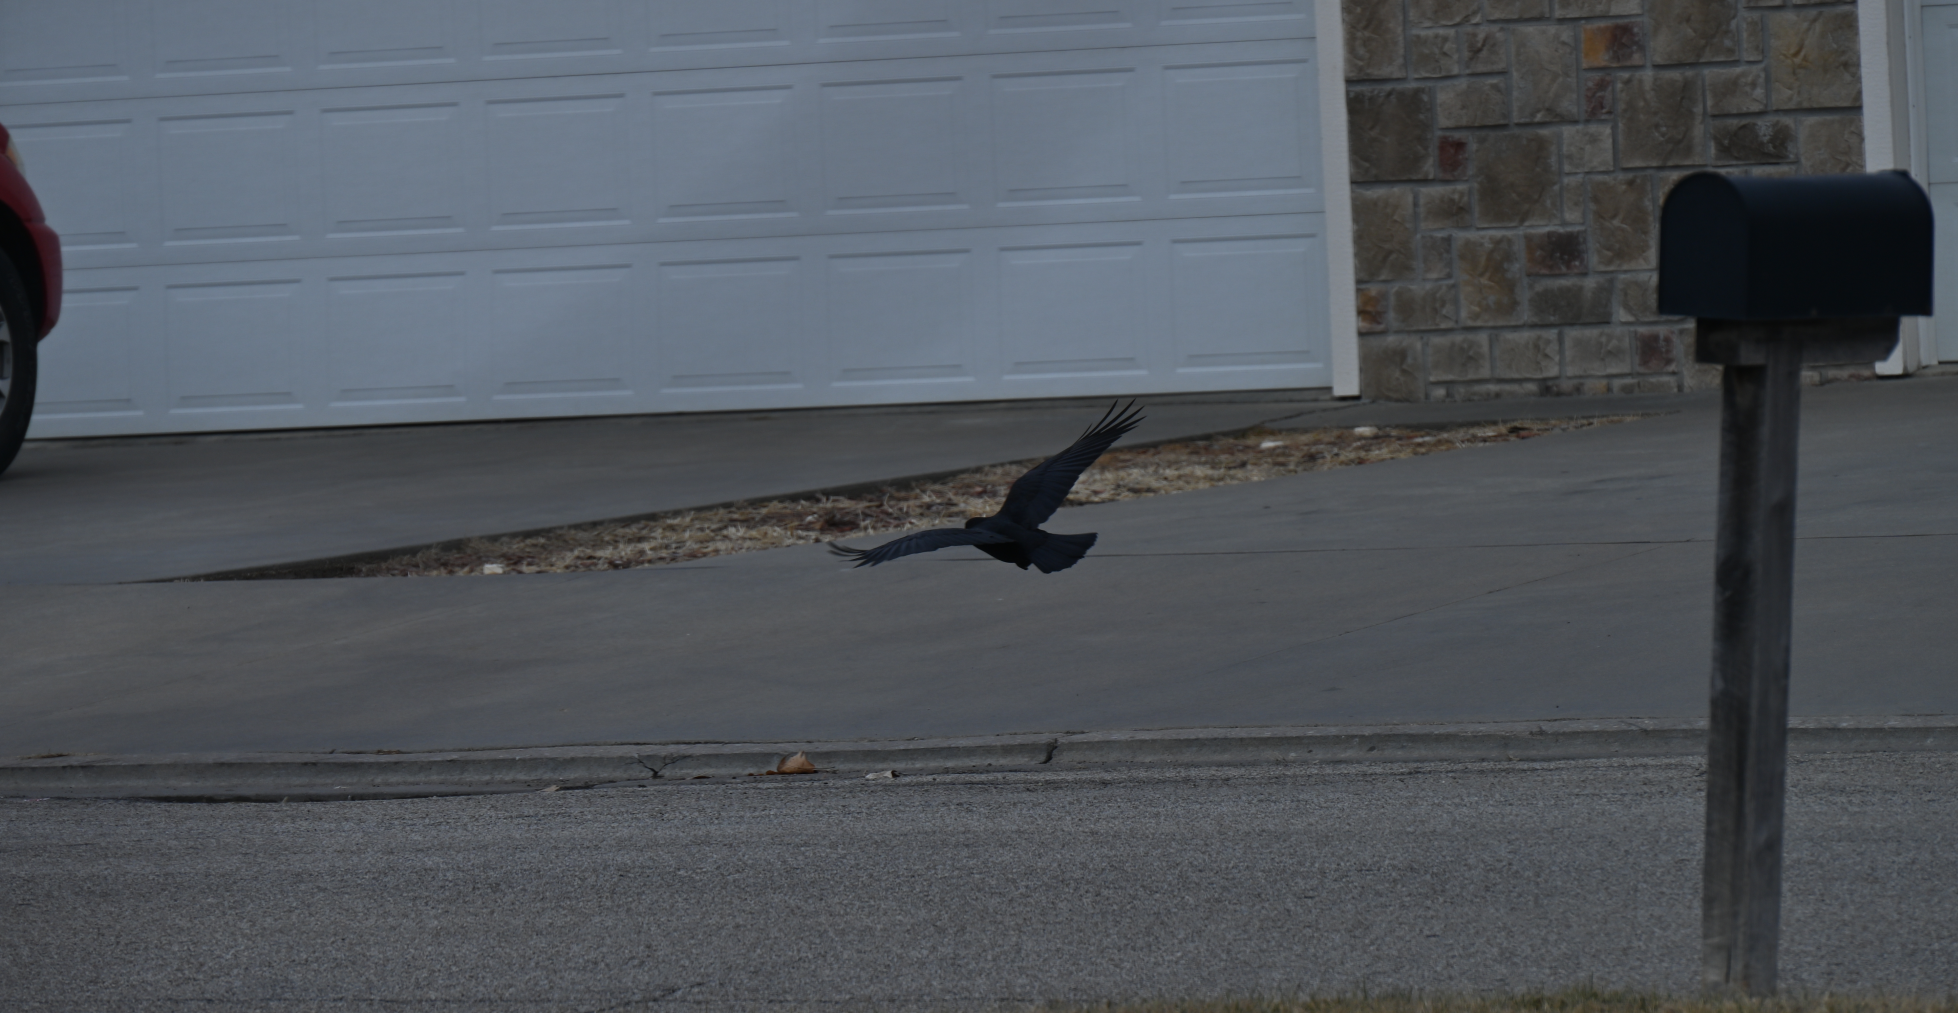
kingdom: Animalia
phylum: Chordata
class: Aves
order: Passeriformes
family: Corvidae
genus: Corvus
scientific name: Corvus brachyrhynchos
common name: American crow
